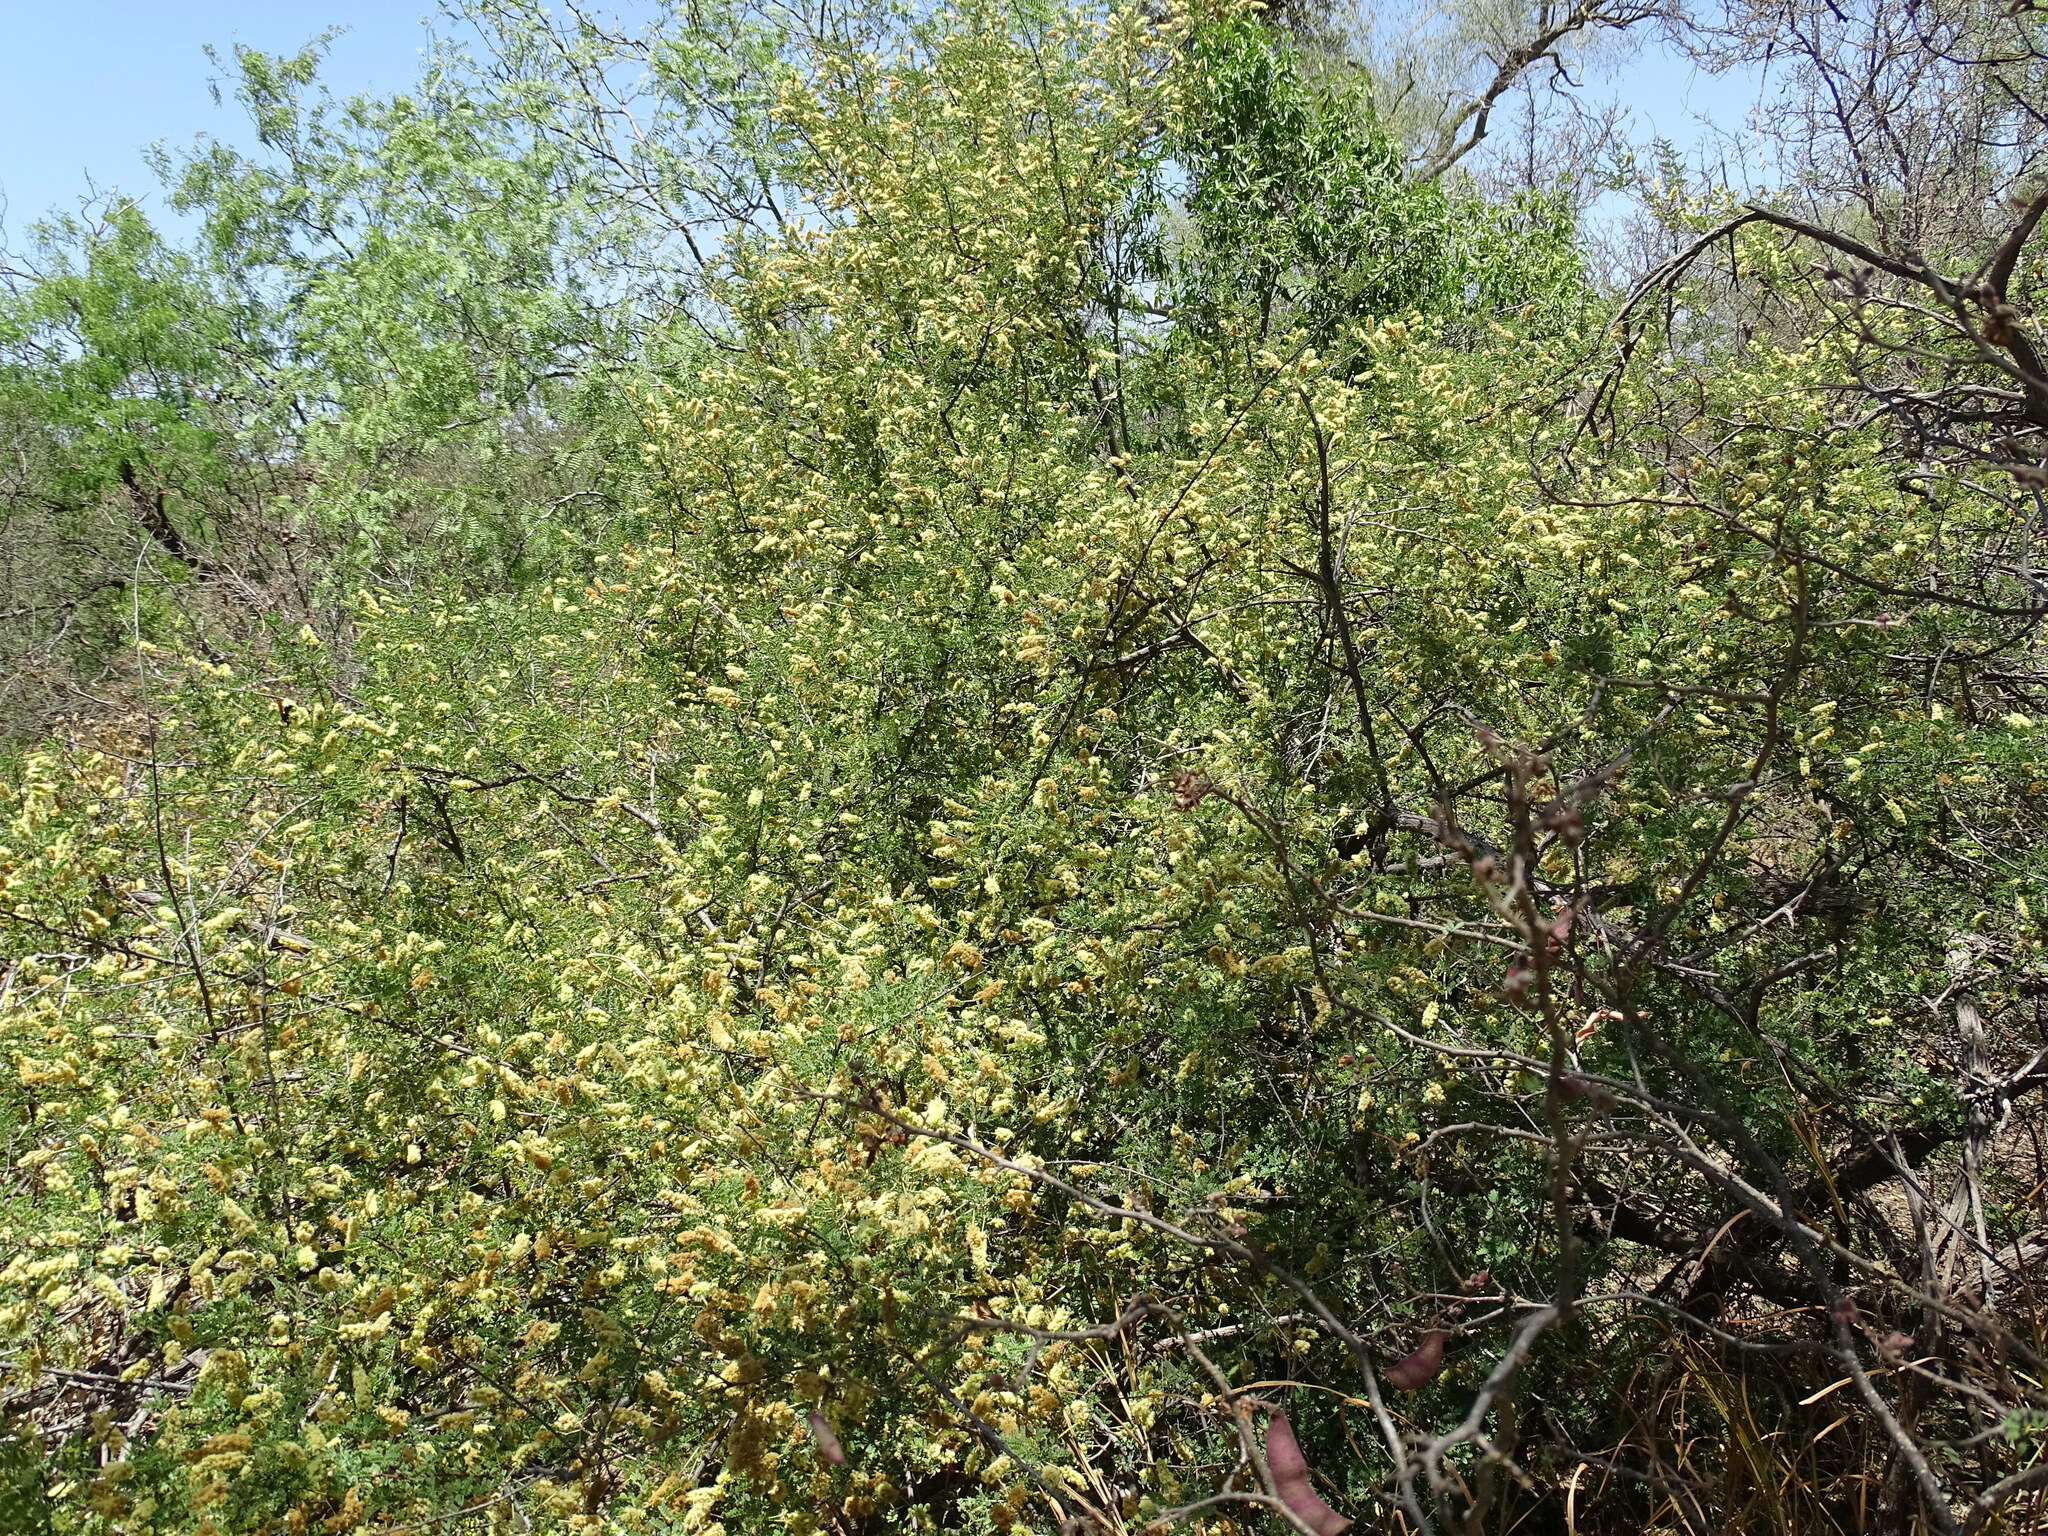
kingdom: Plantae
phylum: Tracheophyta
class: Magnoliopsida
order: Fabales
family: Fabaceae
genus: Senegalia
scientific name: Senegalia greggii
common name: Texas-mimosa
